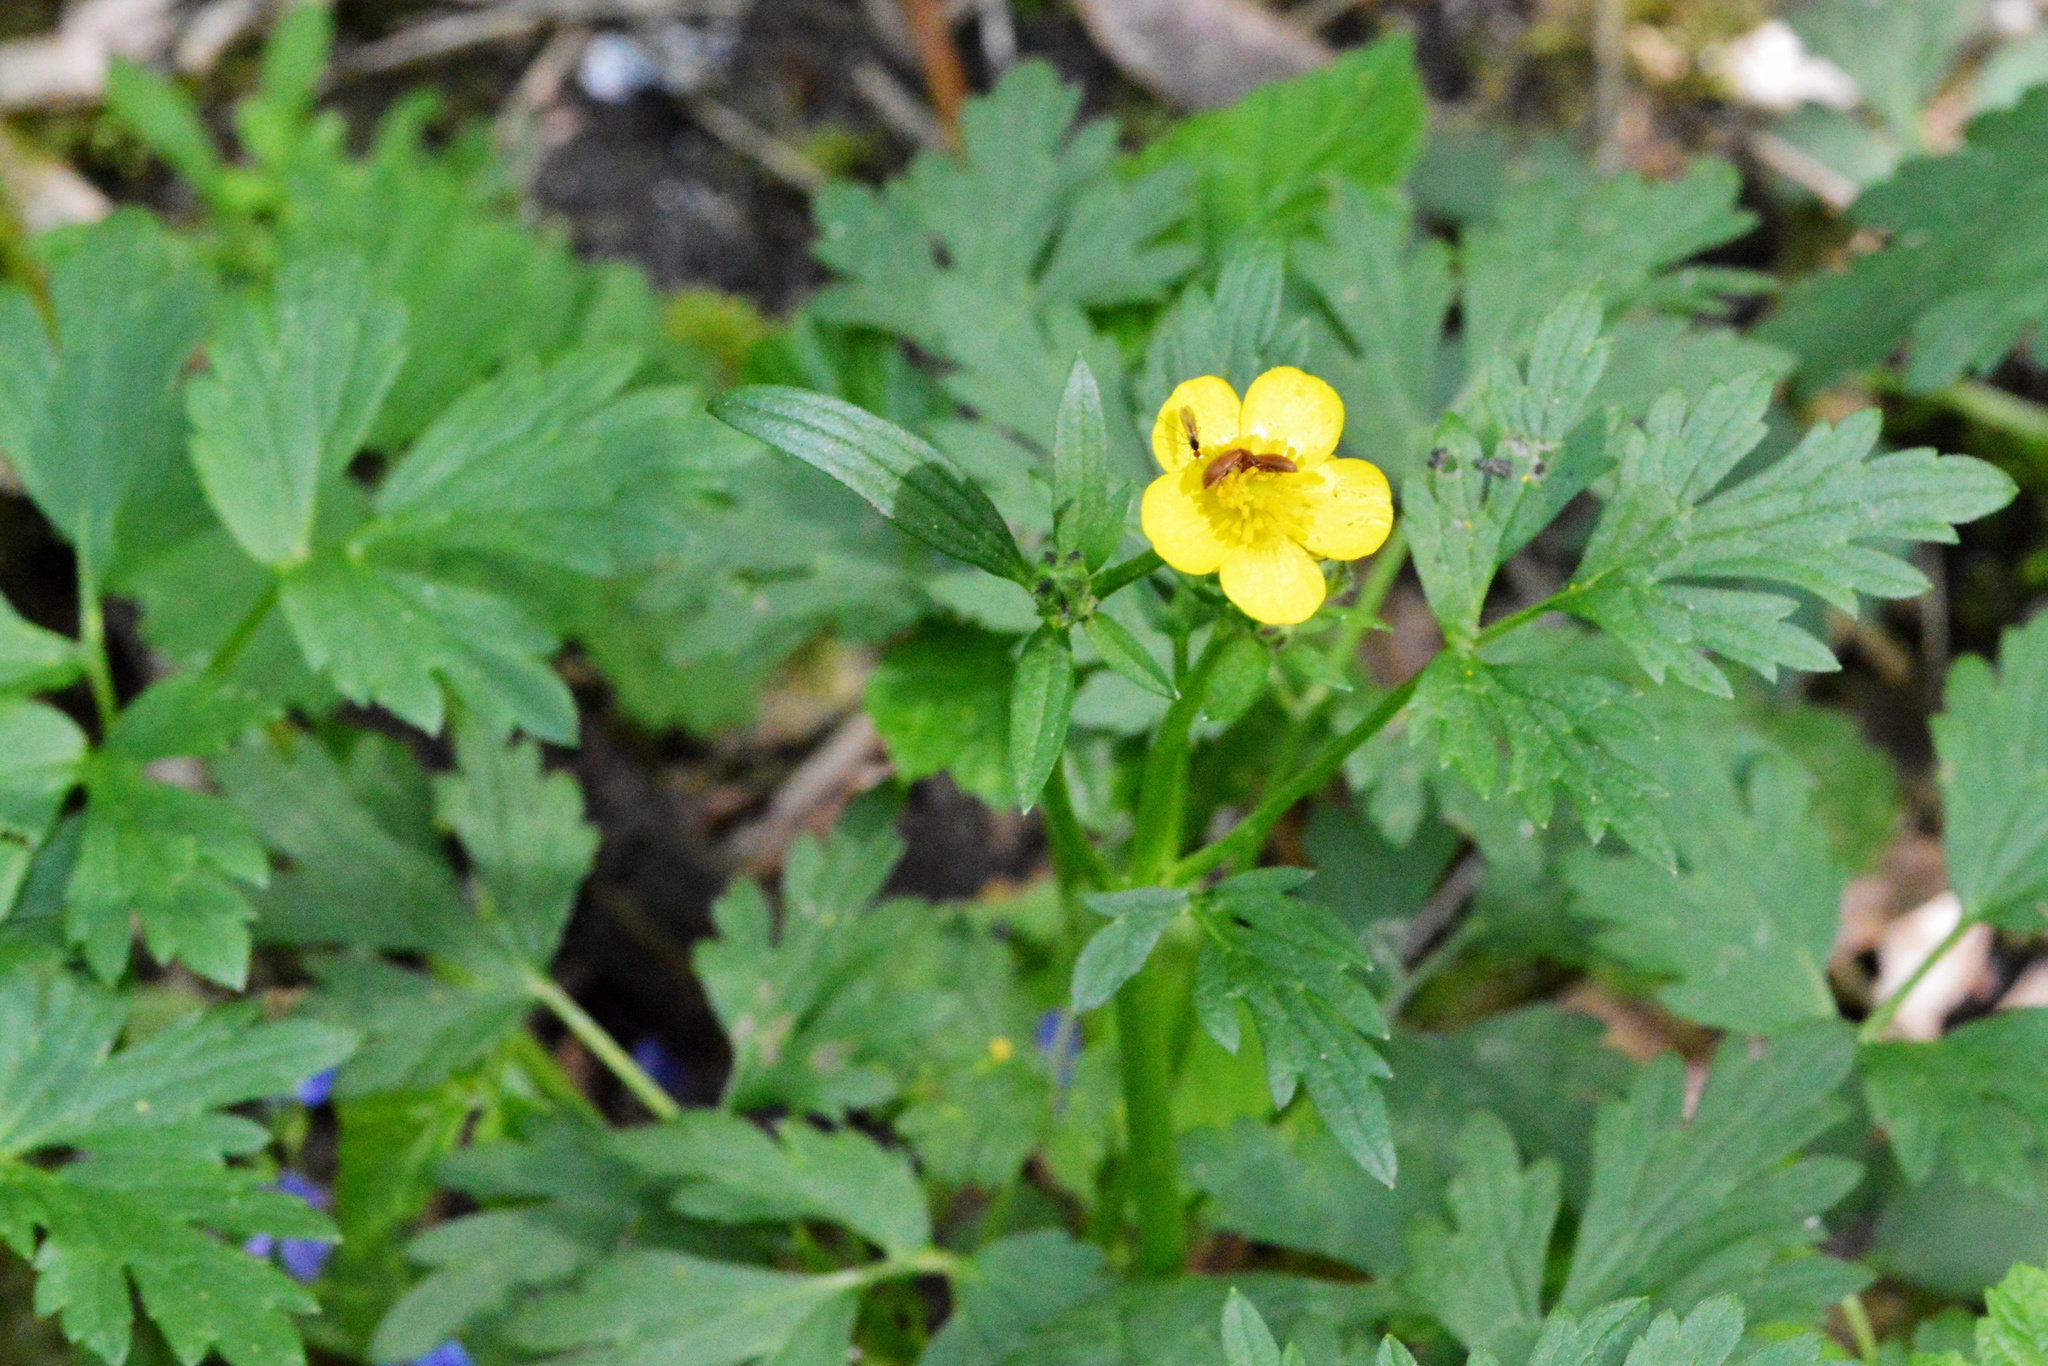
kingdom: Plantae
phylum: Tracheophyta
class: Magnoliopsida
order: Ranunculales
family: Ranunculaceae
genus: Ranunculus
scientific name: Ranunculus repens
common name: Creeping buttercup
